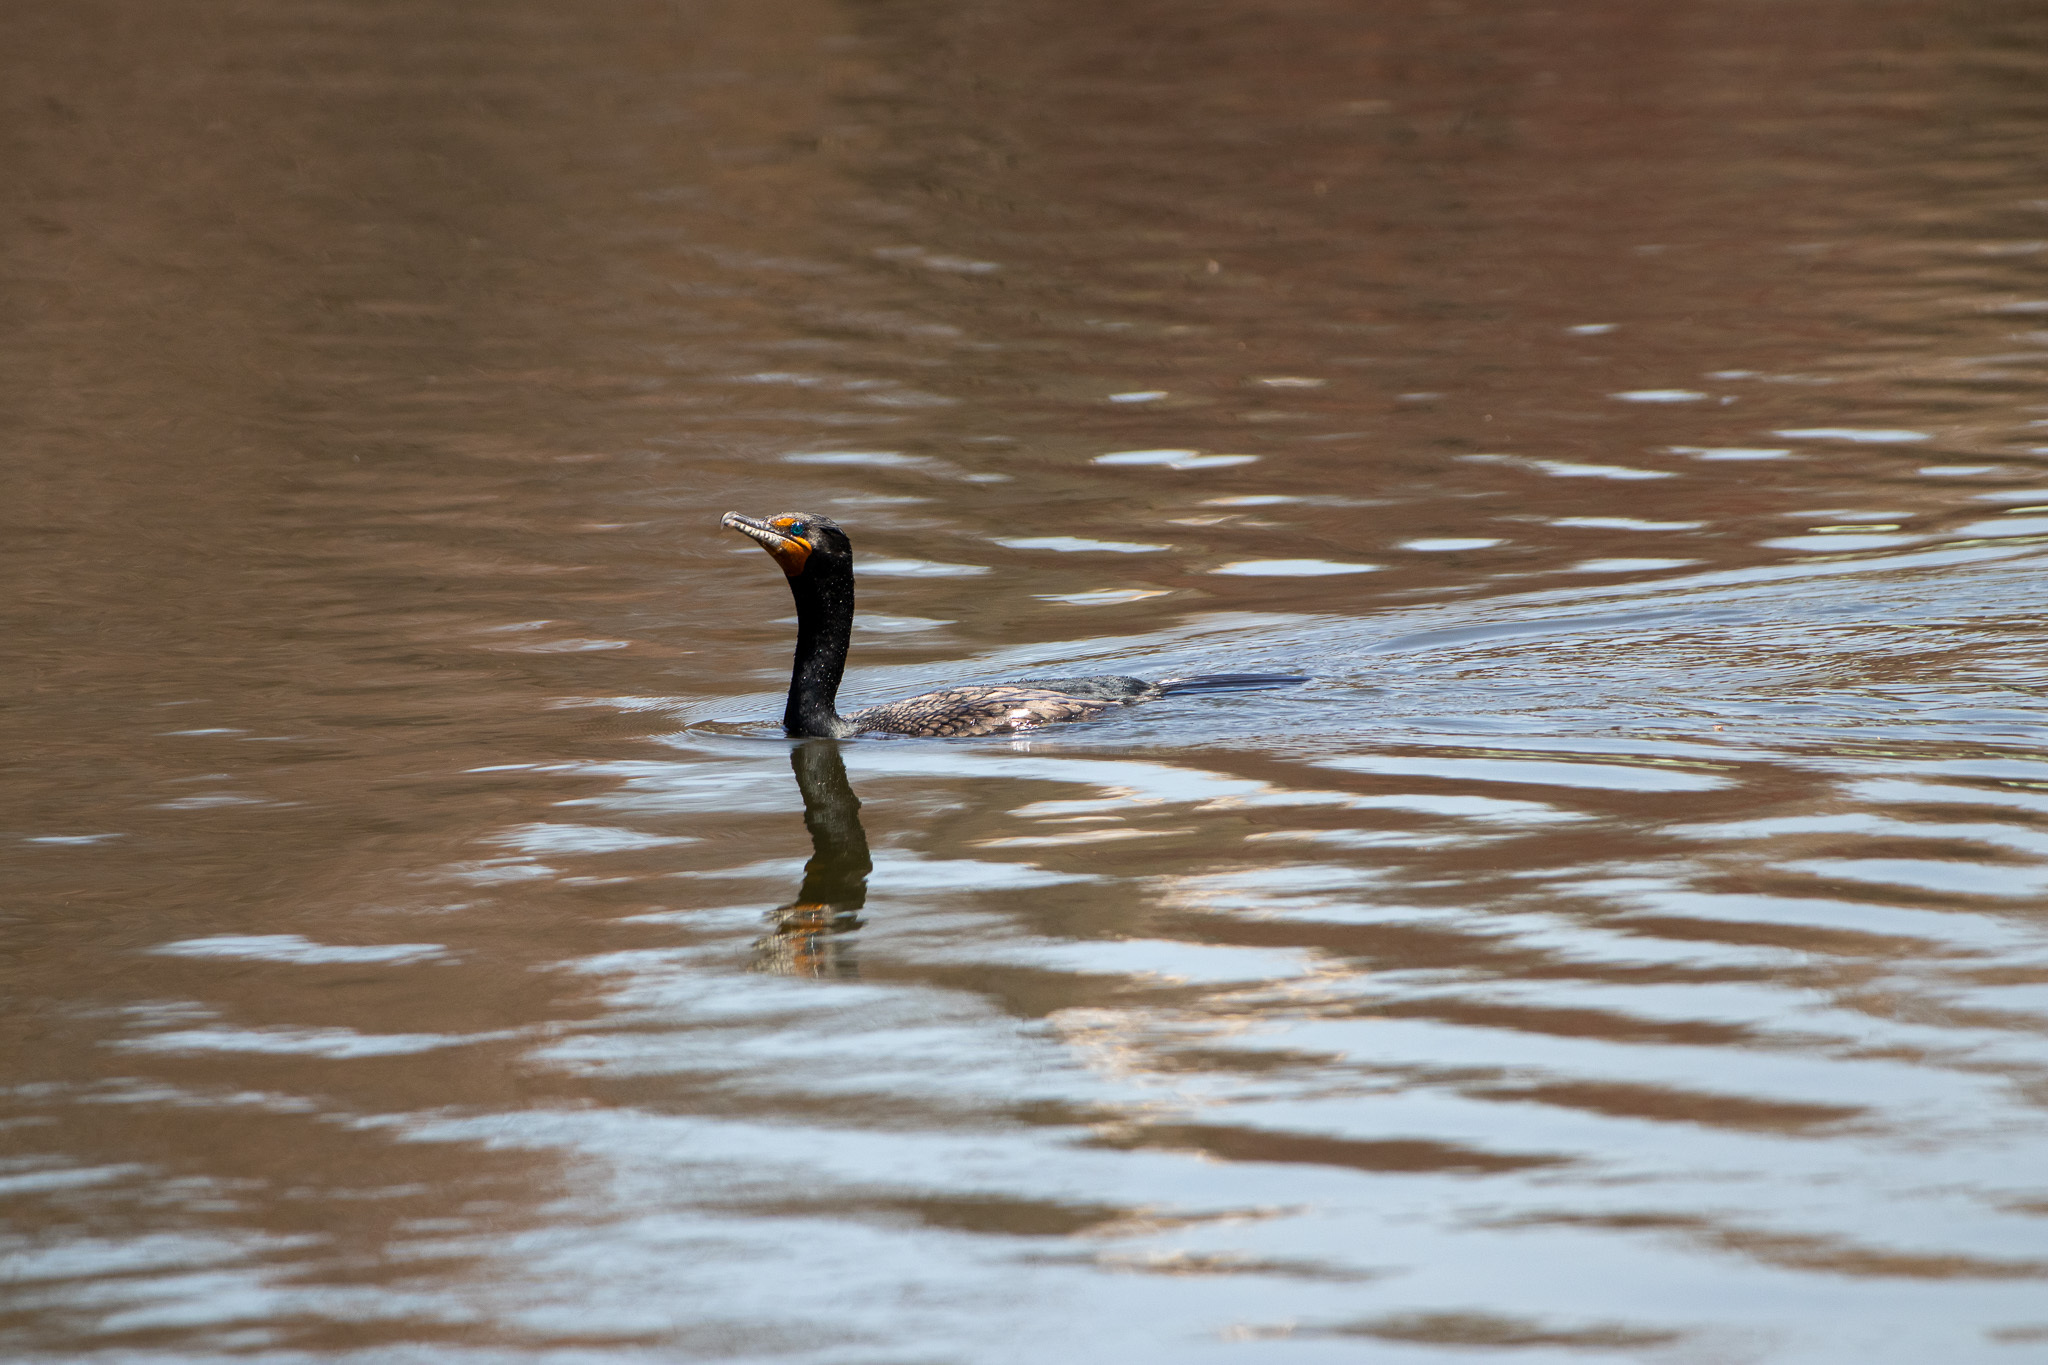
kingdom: Animalia
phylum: Chordata
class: Aves
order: Suliformes
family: Phalacrocoracidae
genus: Phalacrocorax
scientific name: Phalacrocorax auritus
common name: Double-crested cormorant
